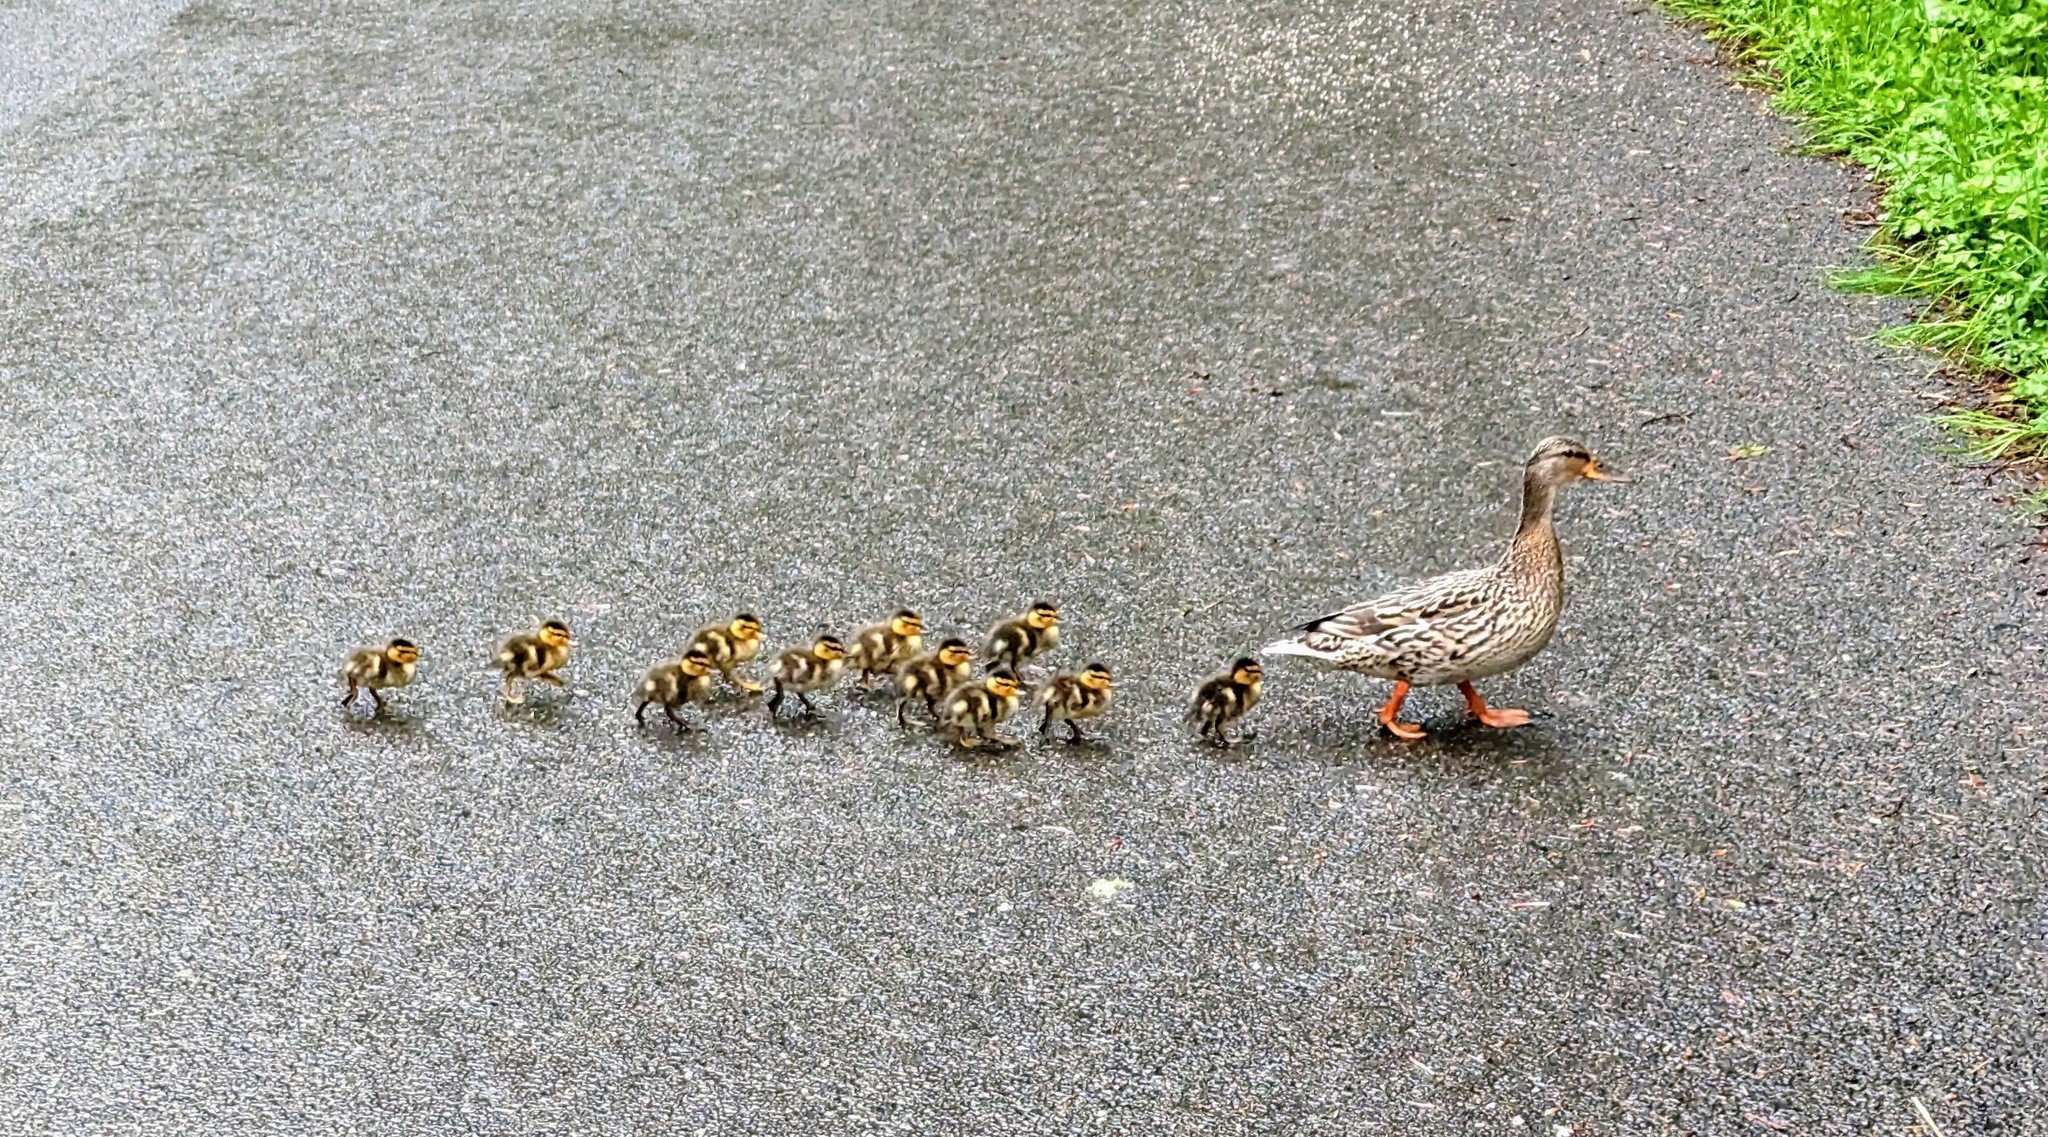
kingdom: Animalia
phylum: Chordata
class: Aves
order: Anseriformes
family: Anatidae
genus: Anas
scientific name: Anas platyrhynchos
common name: Mallard
